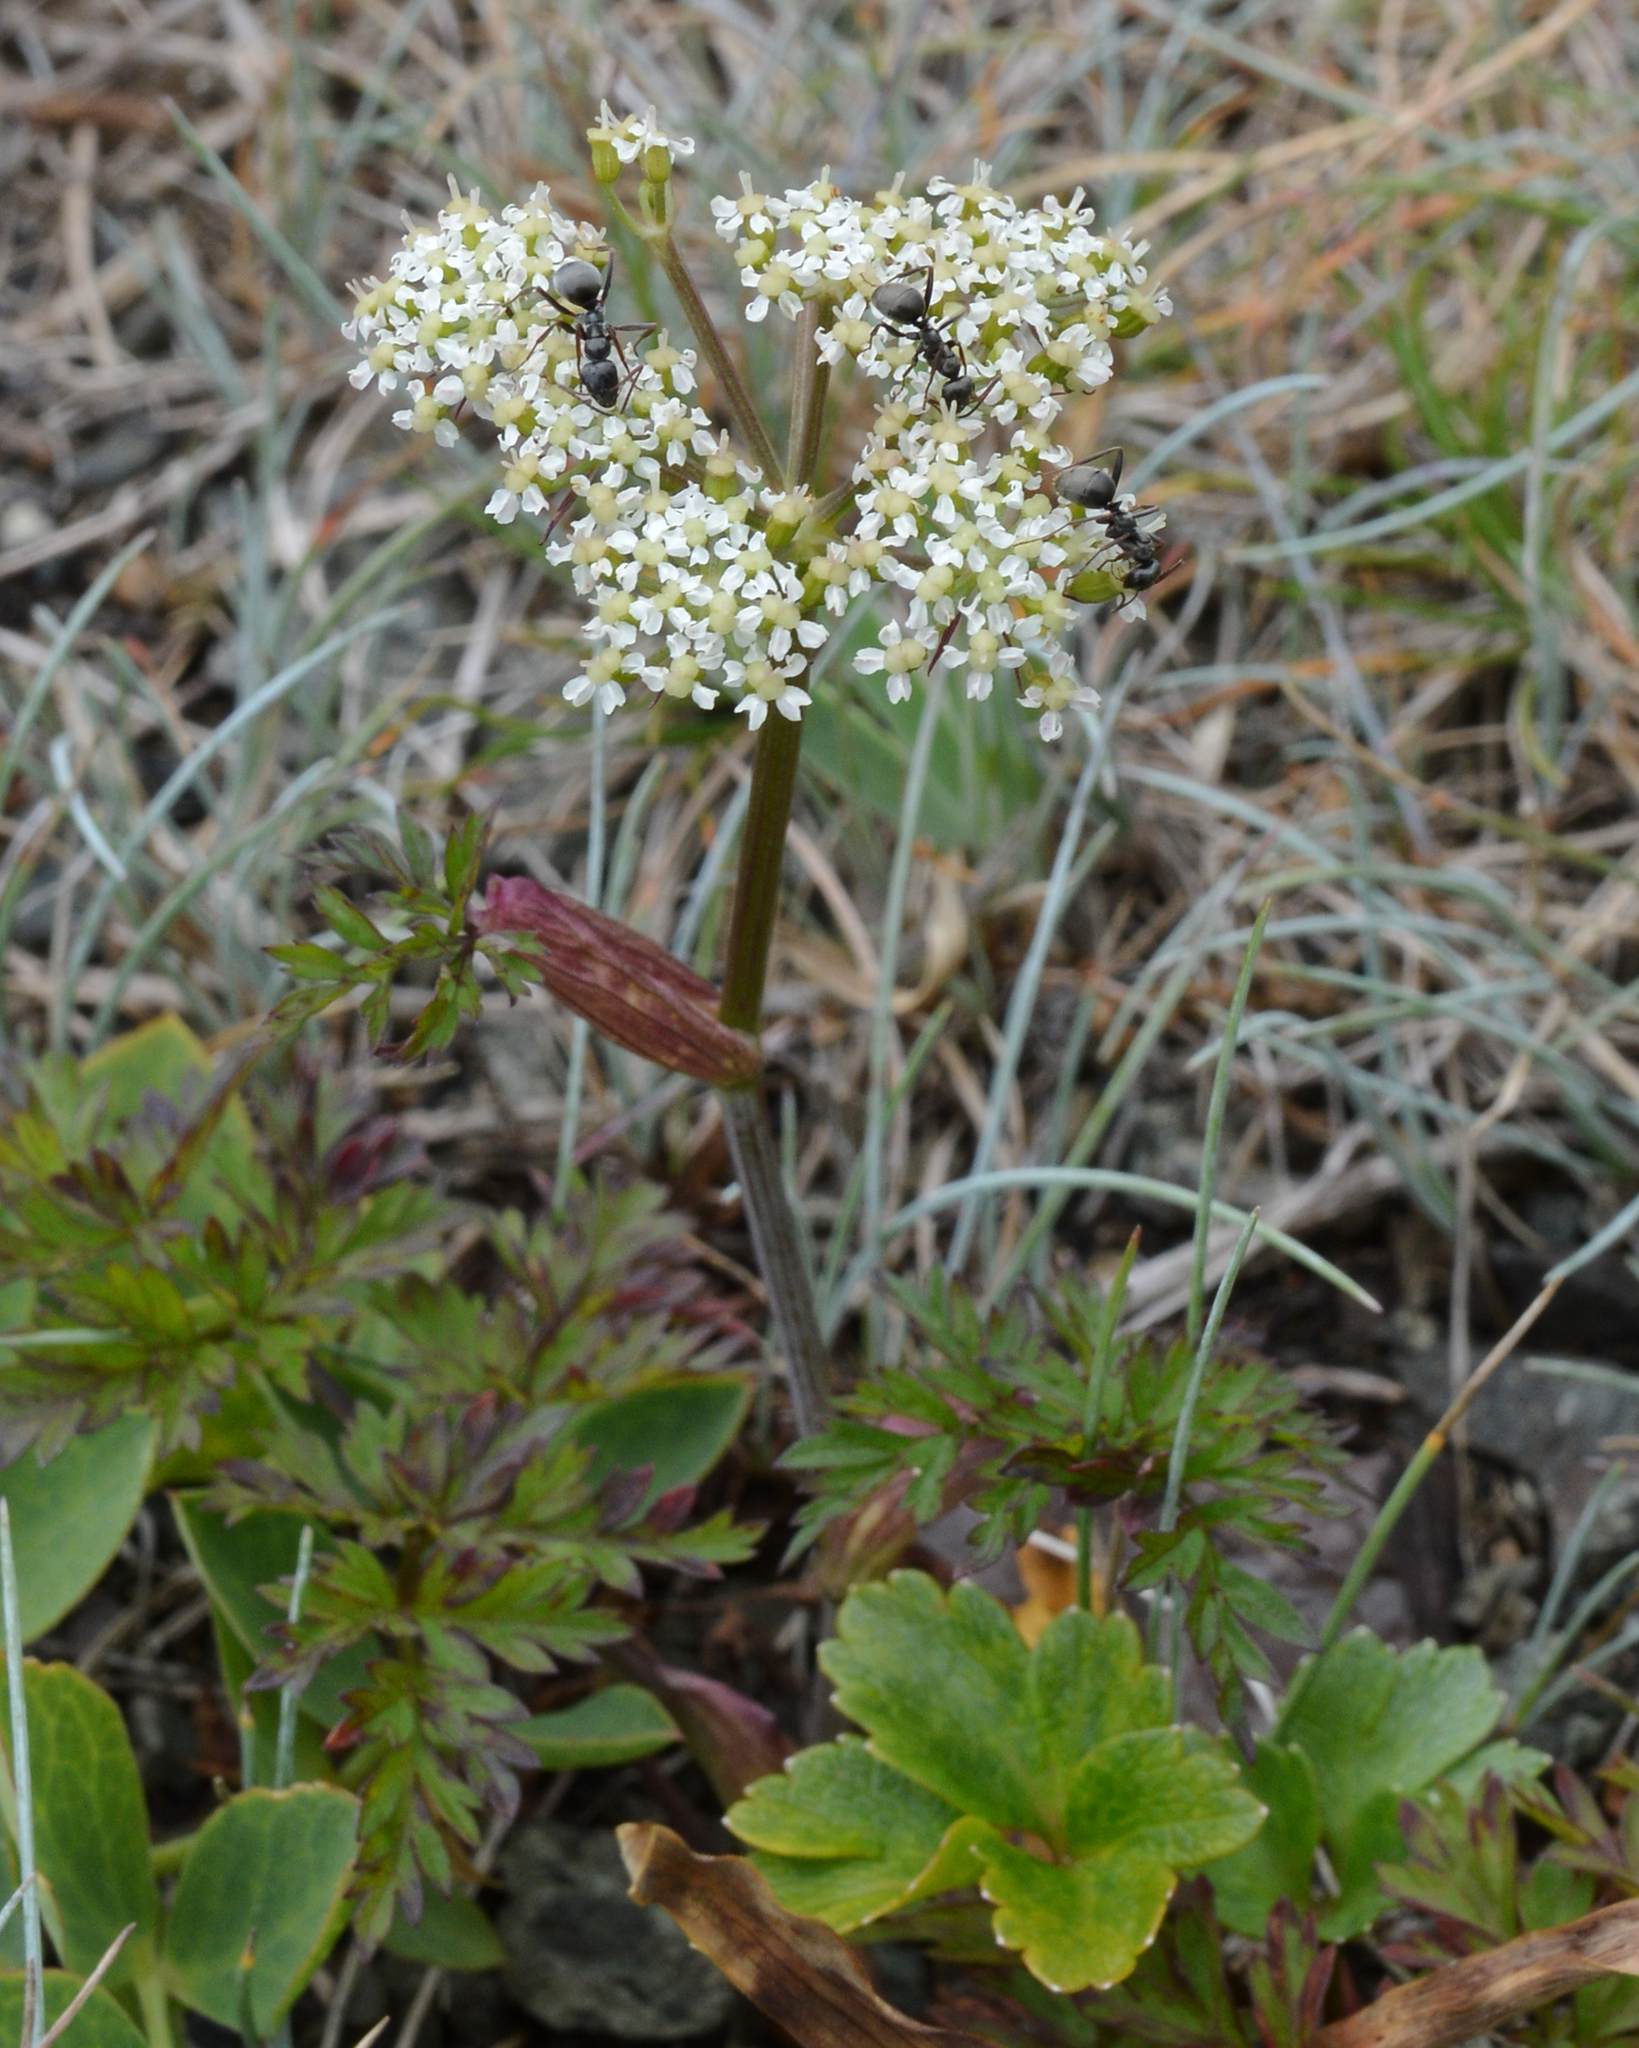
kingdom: Plantae
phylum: Tracheophyta
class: Magnoliopsida
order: Apiales
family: Apiaceae
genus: Kreidion
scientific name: Kreidion chinensis
